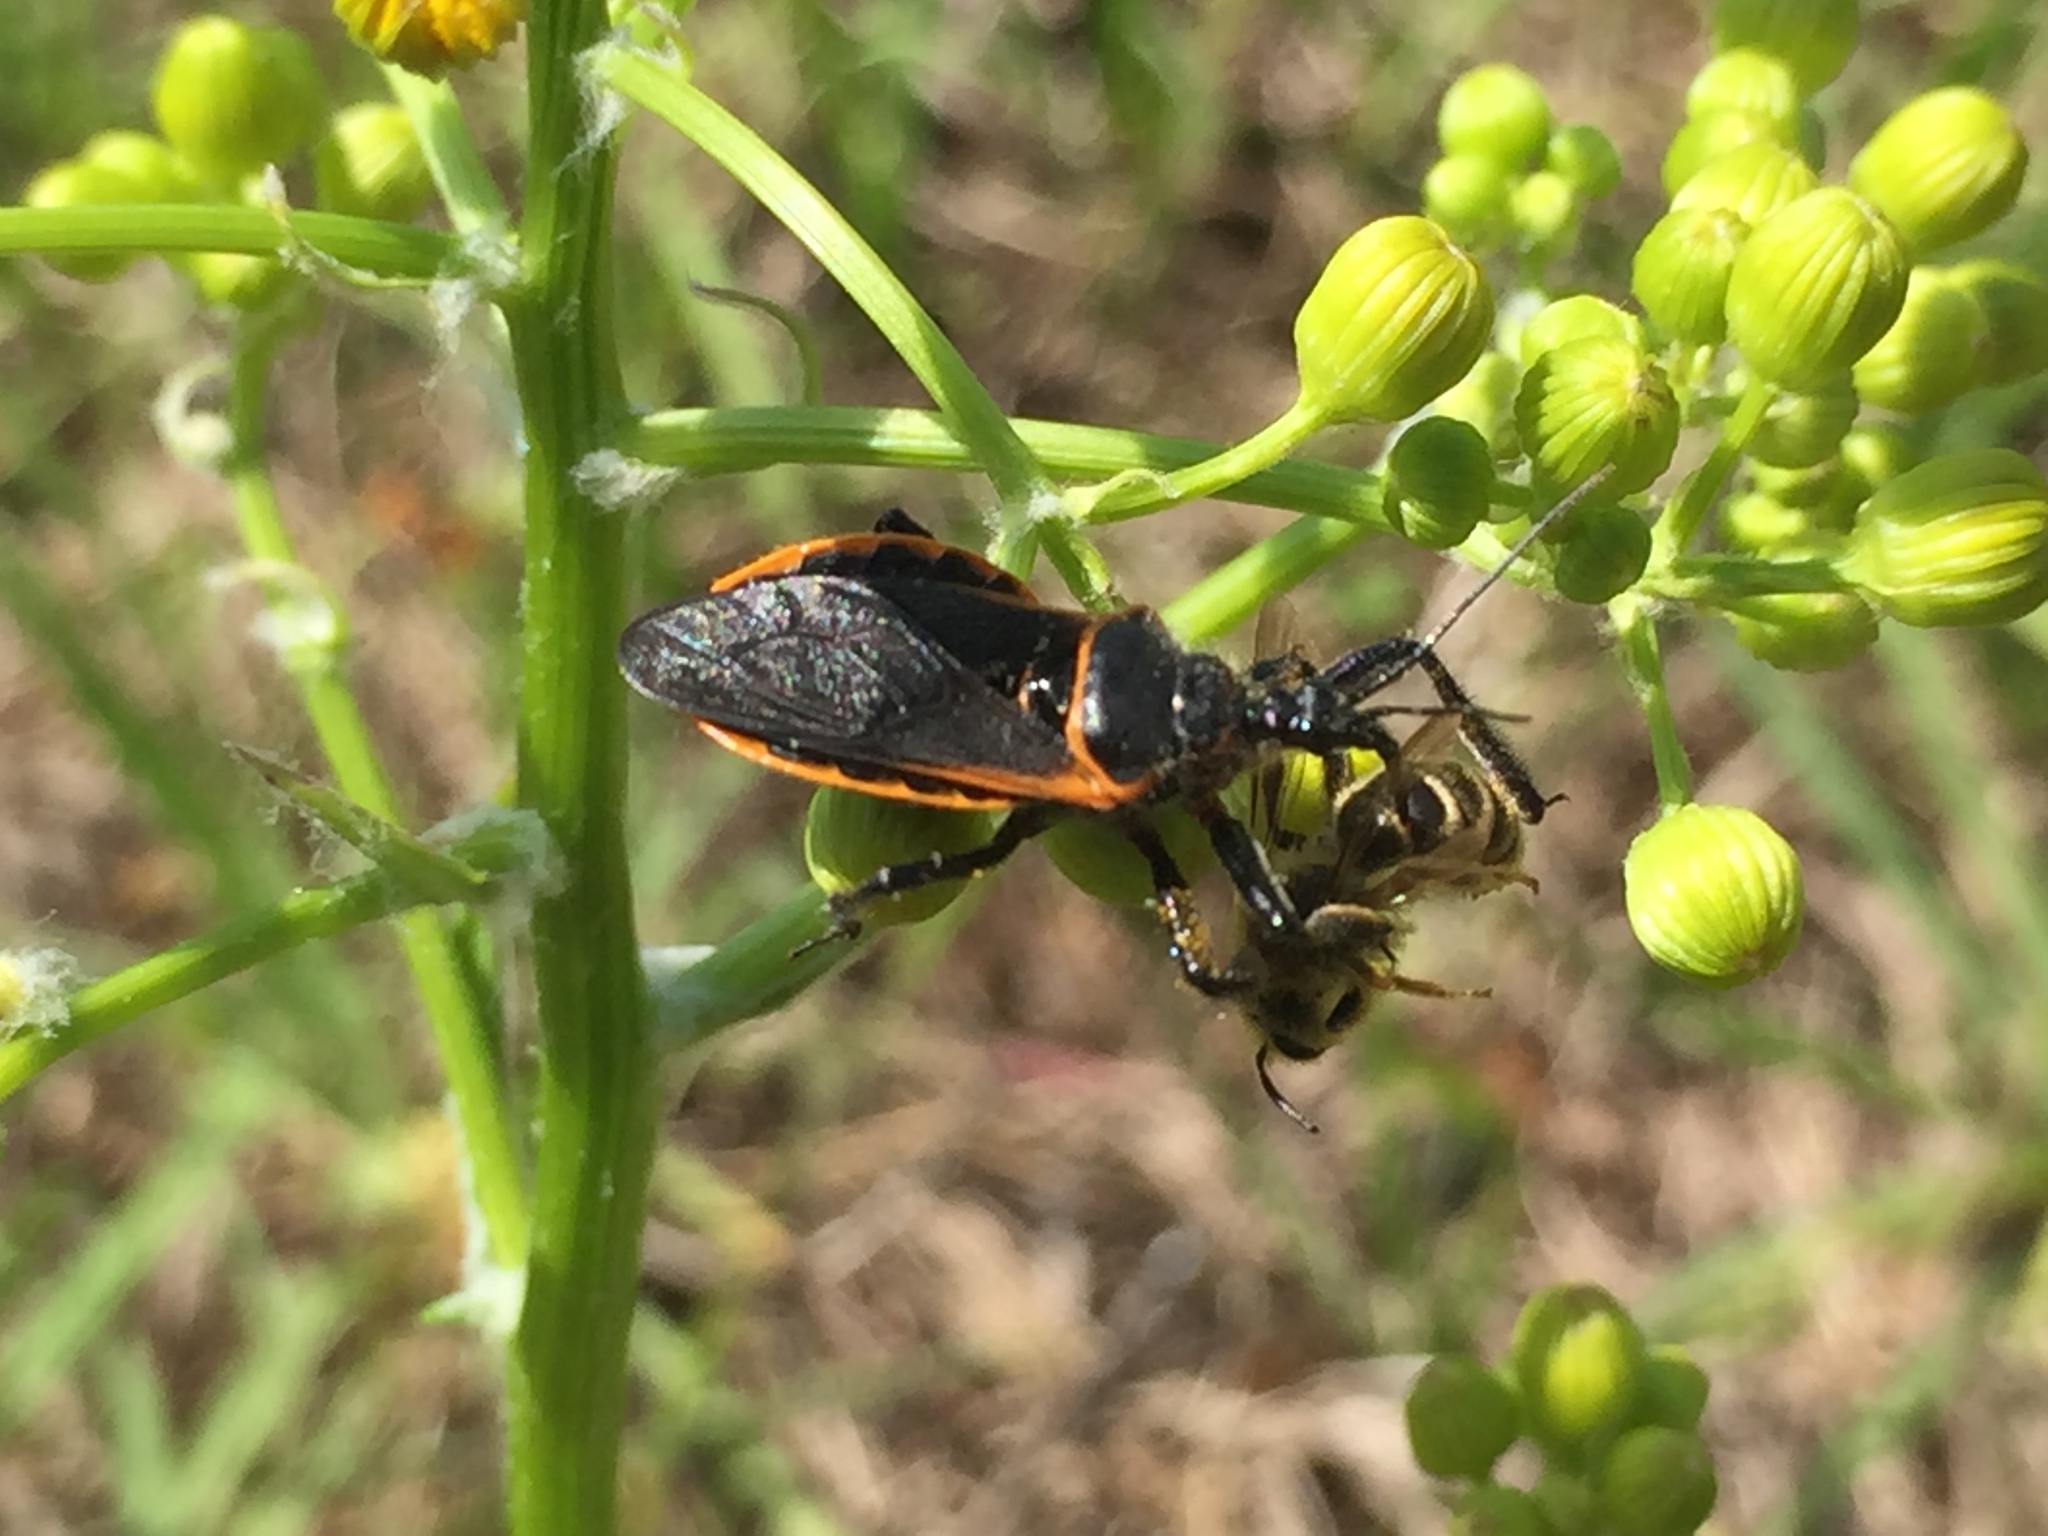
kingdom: Animalia
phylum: Arthropoda
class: Insecta
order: Hemiptera
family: Reduviidae
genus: Apiomerus
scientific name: Apiomerus crassipes
